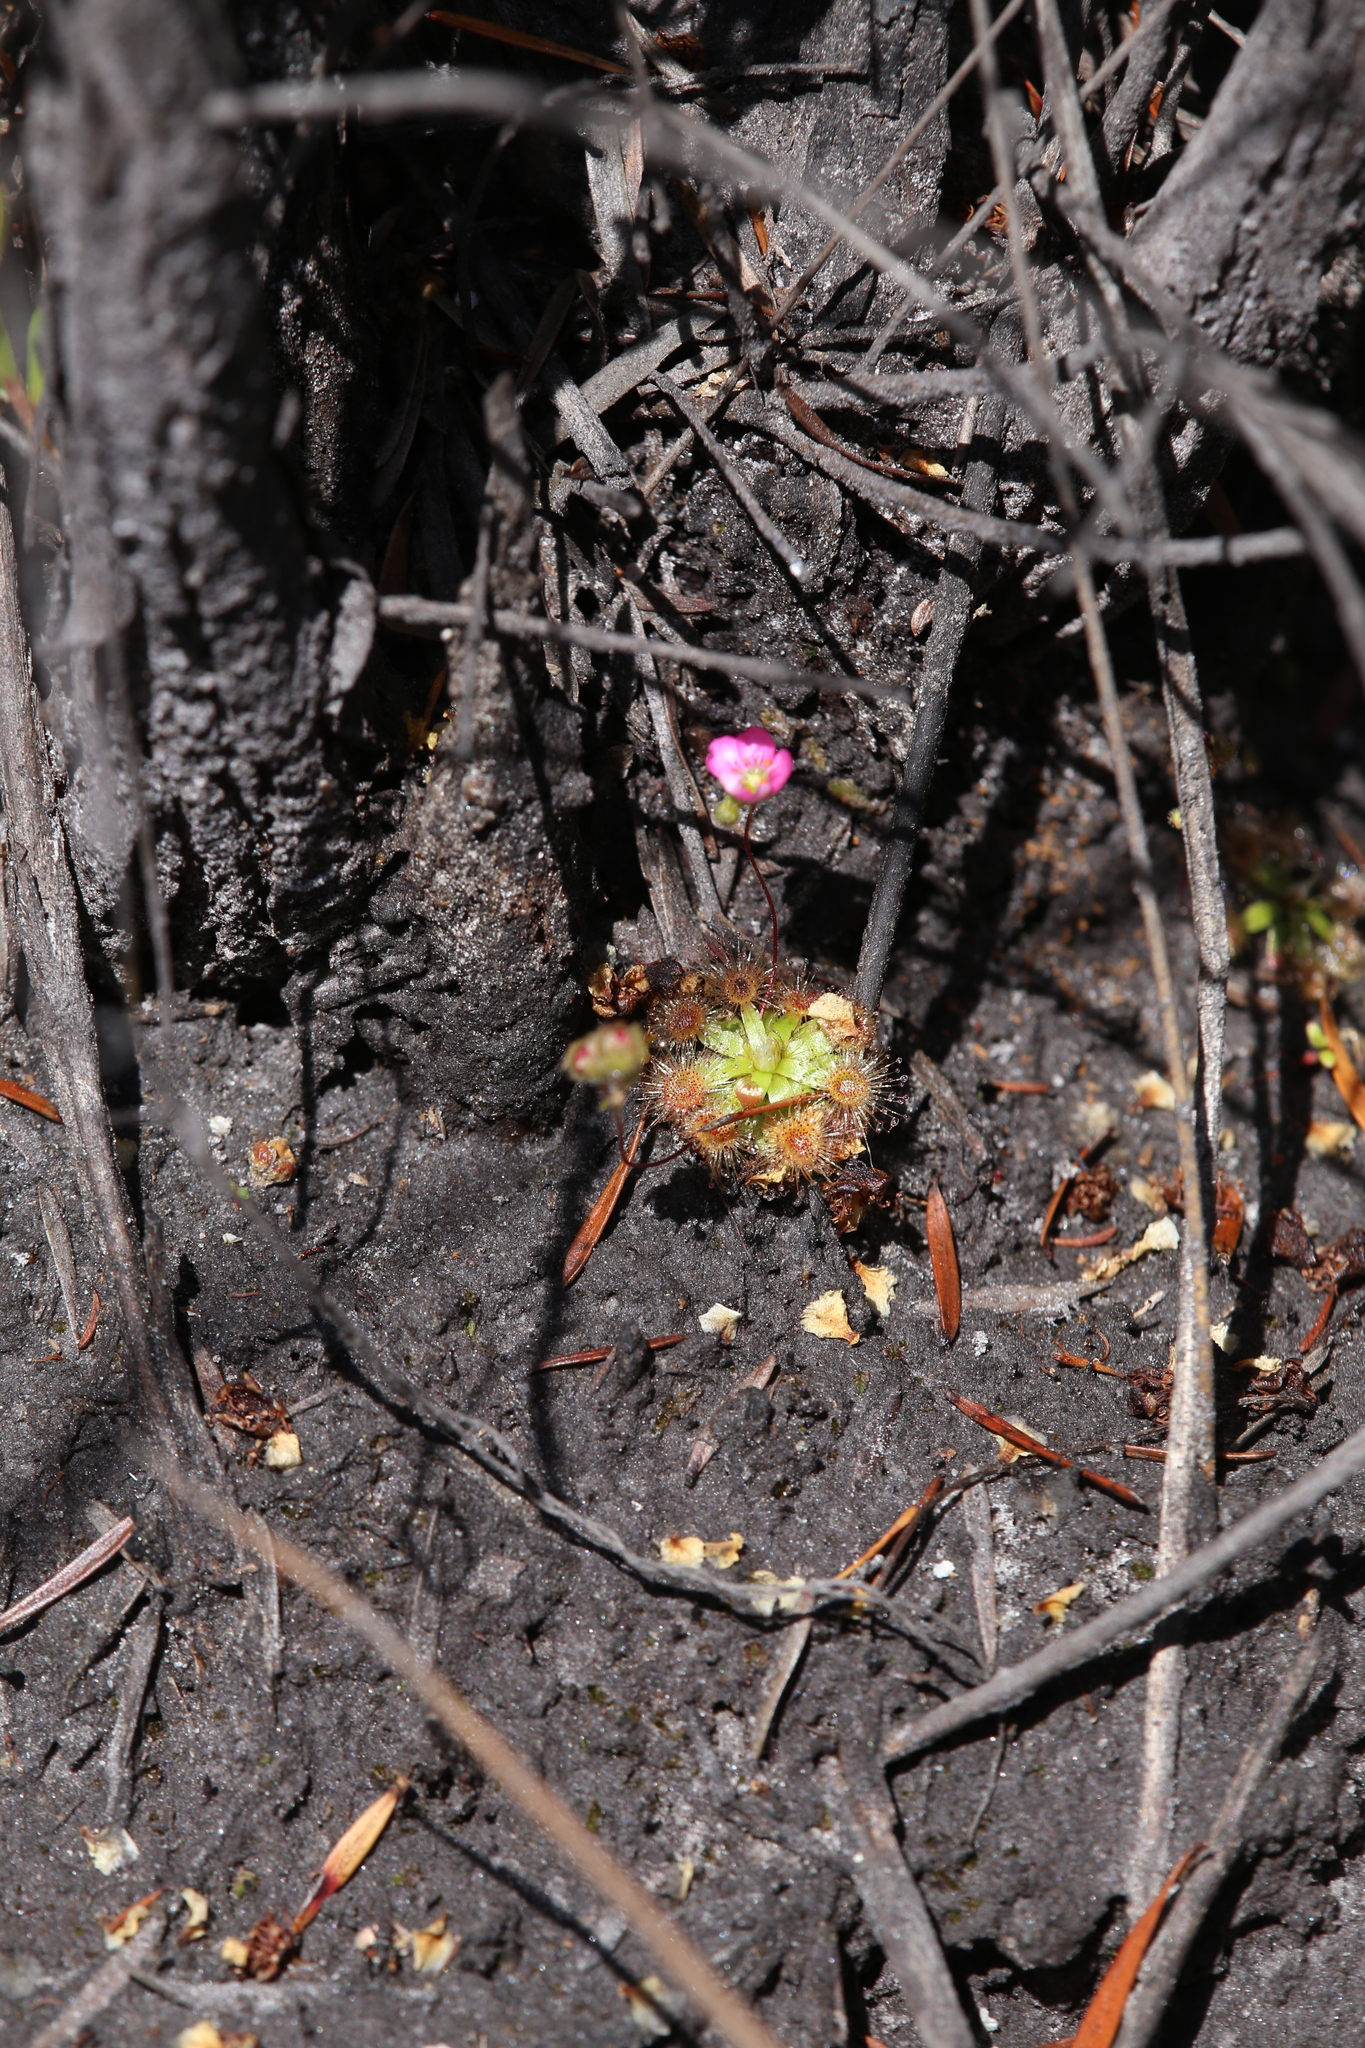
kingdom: Plantae
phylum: Tracheophyta
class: Magnoliopsida
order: Caryophyllales
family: Droseraceae
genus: Drosera
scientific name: Drosera pulchella
